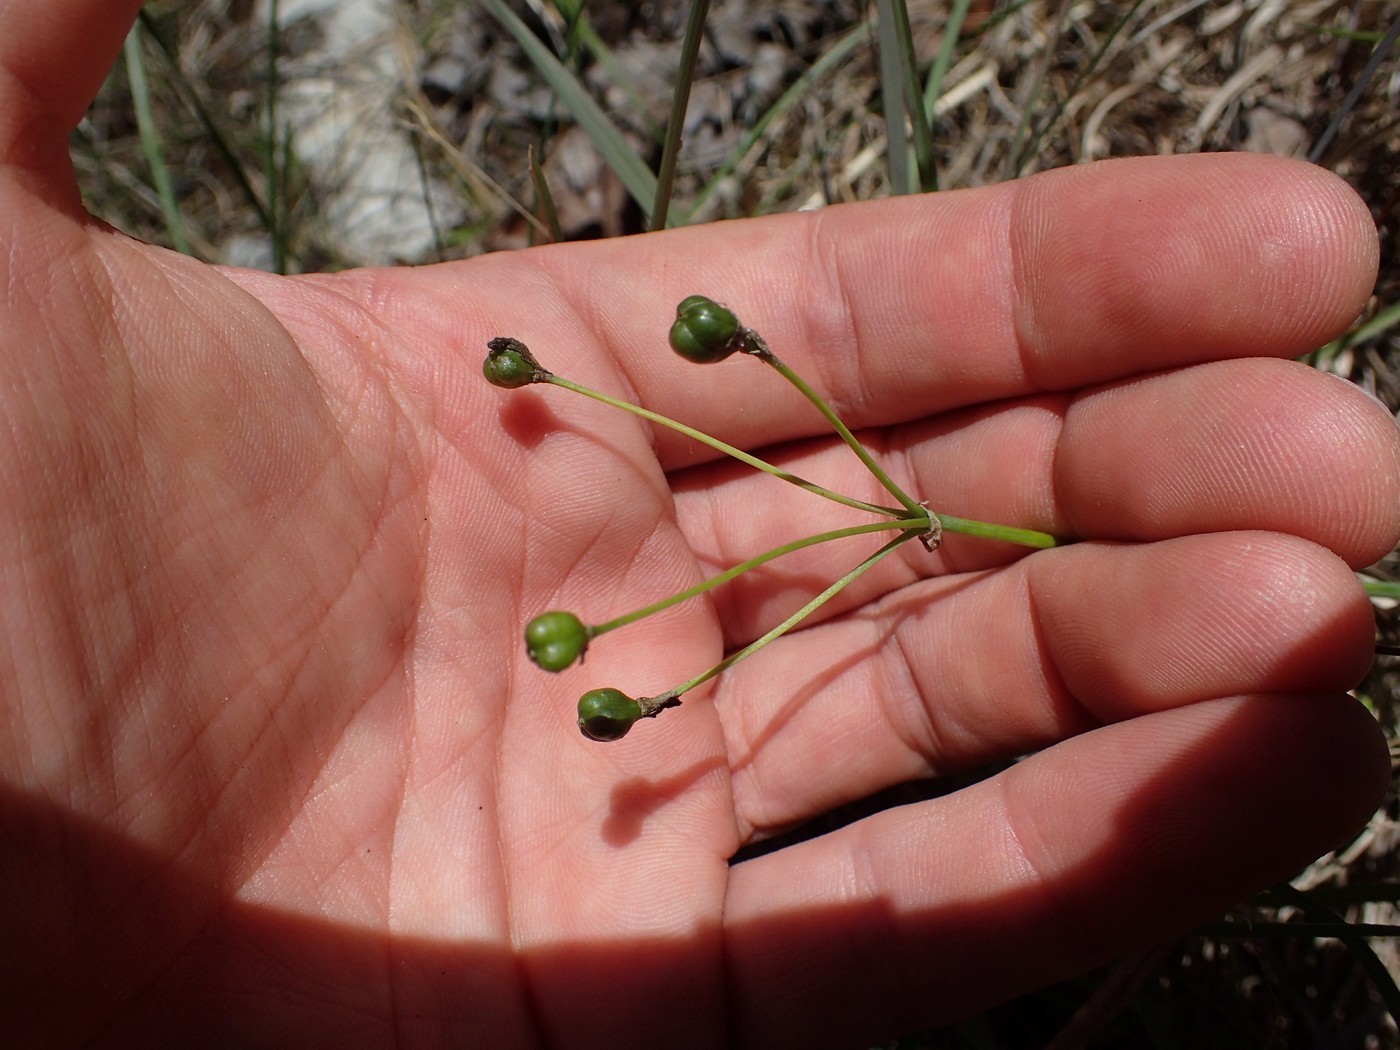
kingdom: Plantae
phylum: Tracheophyta
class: Liliopsida
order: Asparagales
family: Amaryllidaceae
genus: Nothoscordum
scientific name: Nothoscordum bivalve
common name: Crow-poison
